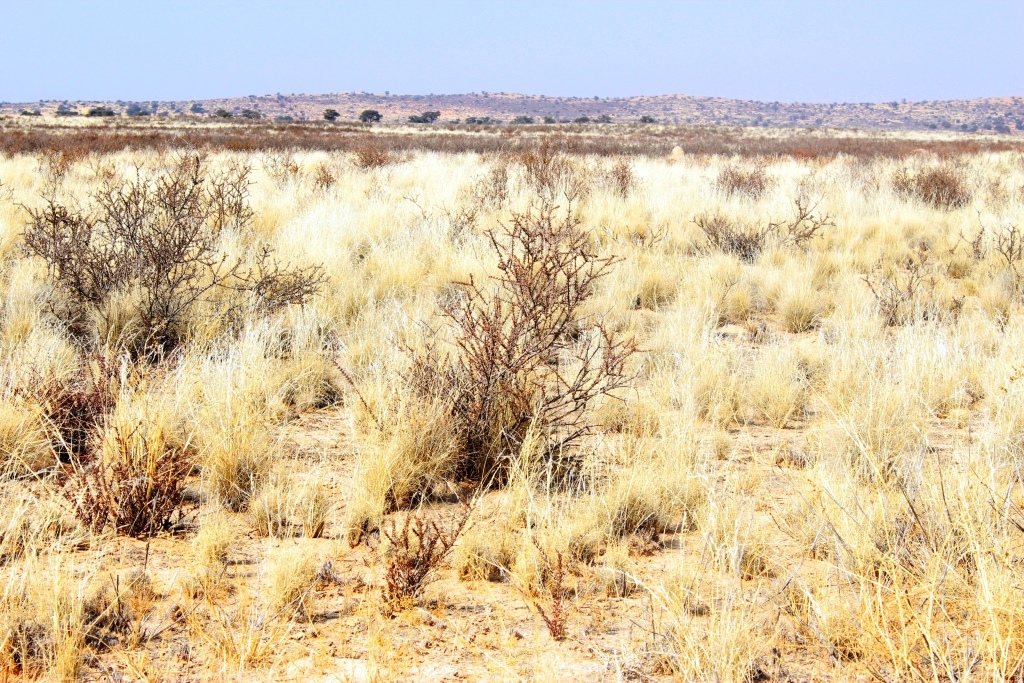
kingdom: Plantae
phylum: Tracheophyta
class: Magnoliopsida
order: Lamiales
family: Bignoniaceae
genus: Rhigozum
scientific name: Rhigozum trichotomum
